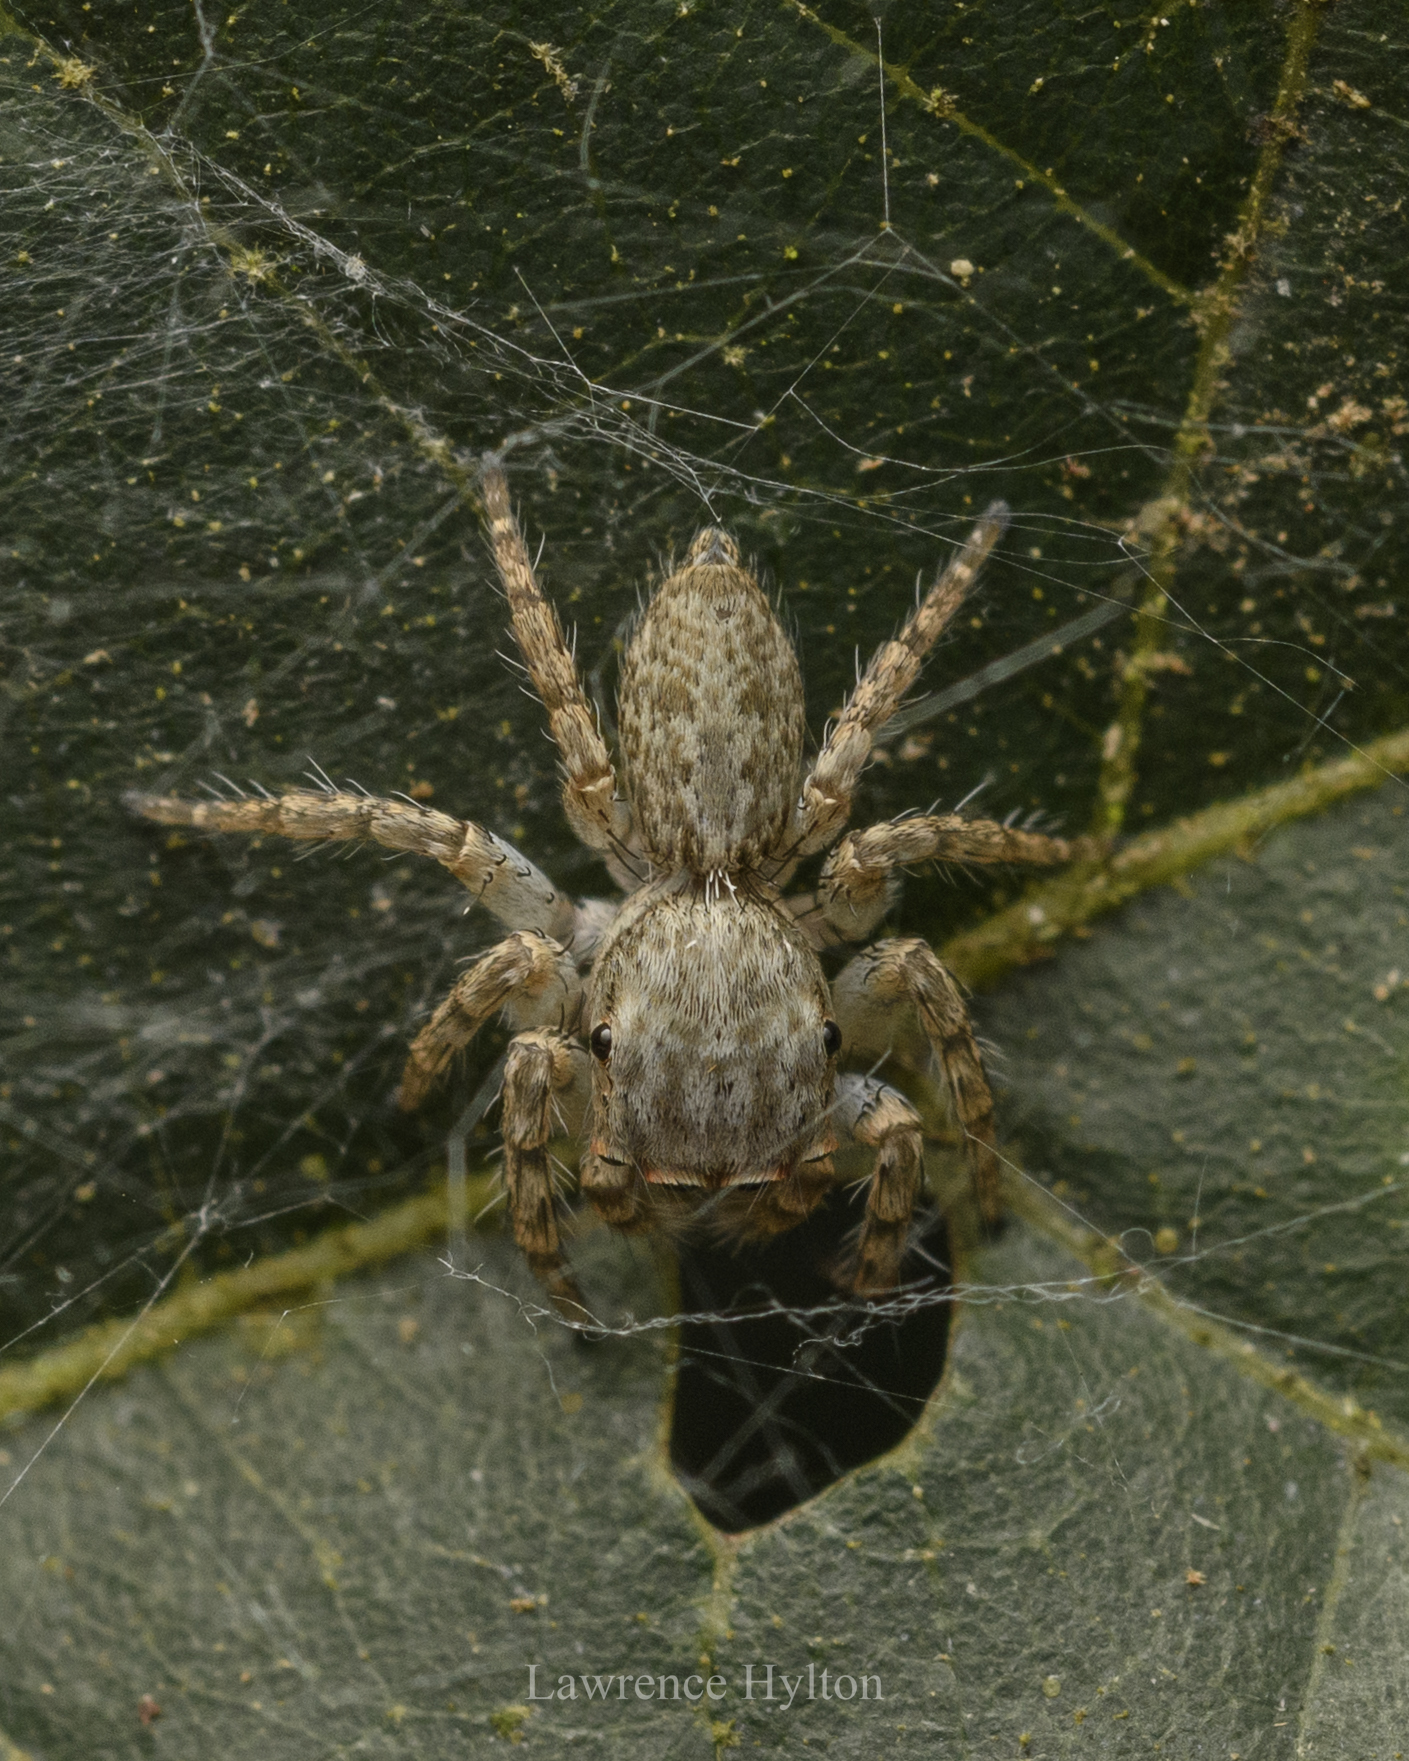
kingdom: Animalia
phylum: Arthropoda
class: Arachnida
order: Araneae
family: Salticidae
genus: Cytaea
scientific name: Cytaea maoming
